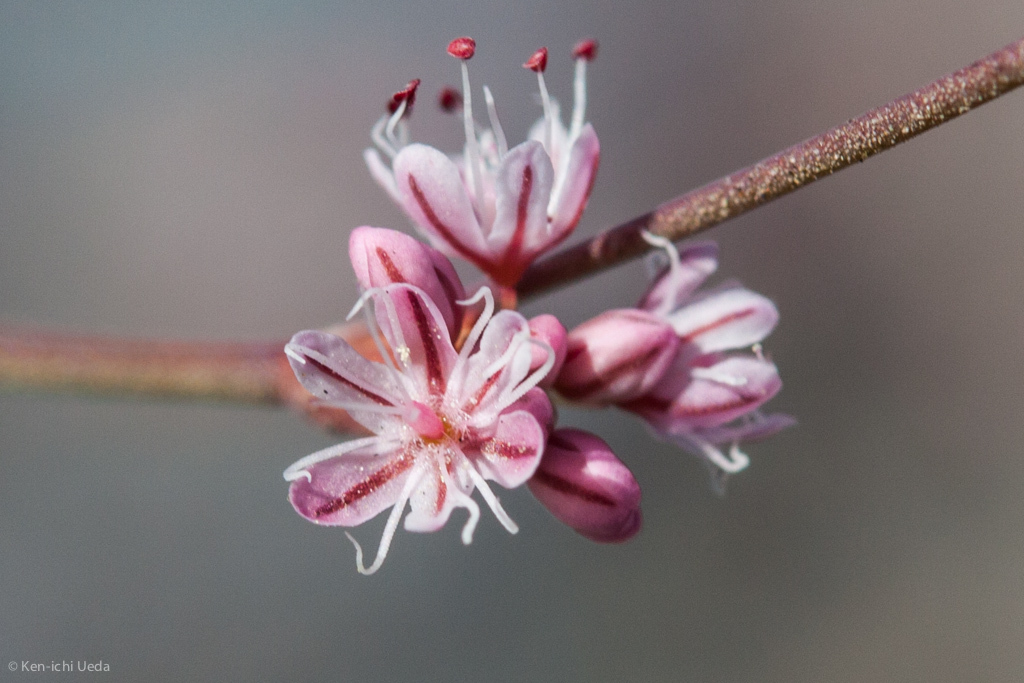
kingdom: Plantae
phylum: Tracheophyta
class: Magnoliopsida
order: Caryophyllales
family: Polygonaceae
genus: Eriogonum
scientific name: Eriogonum luteolum
